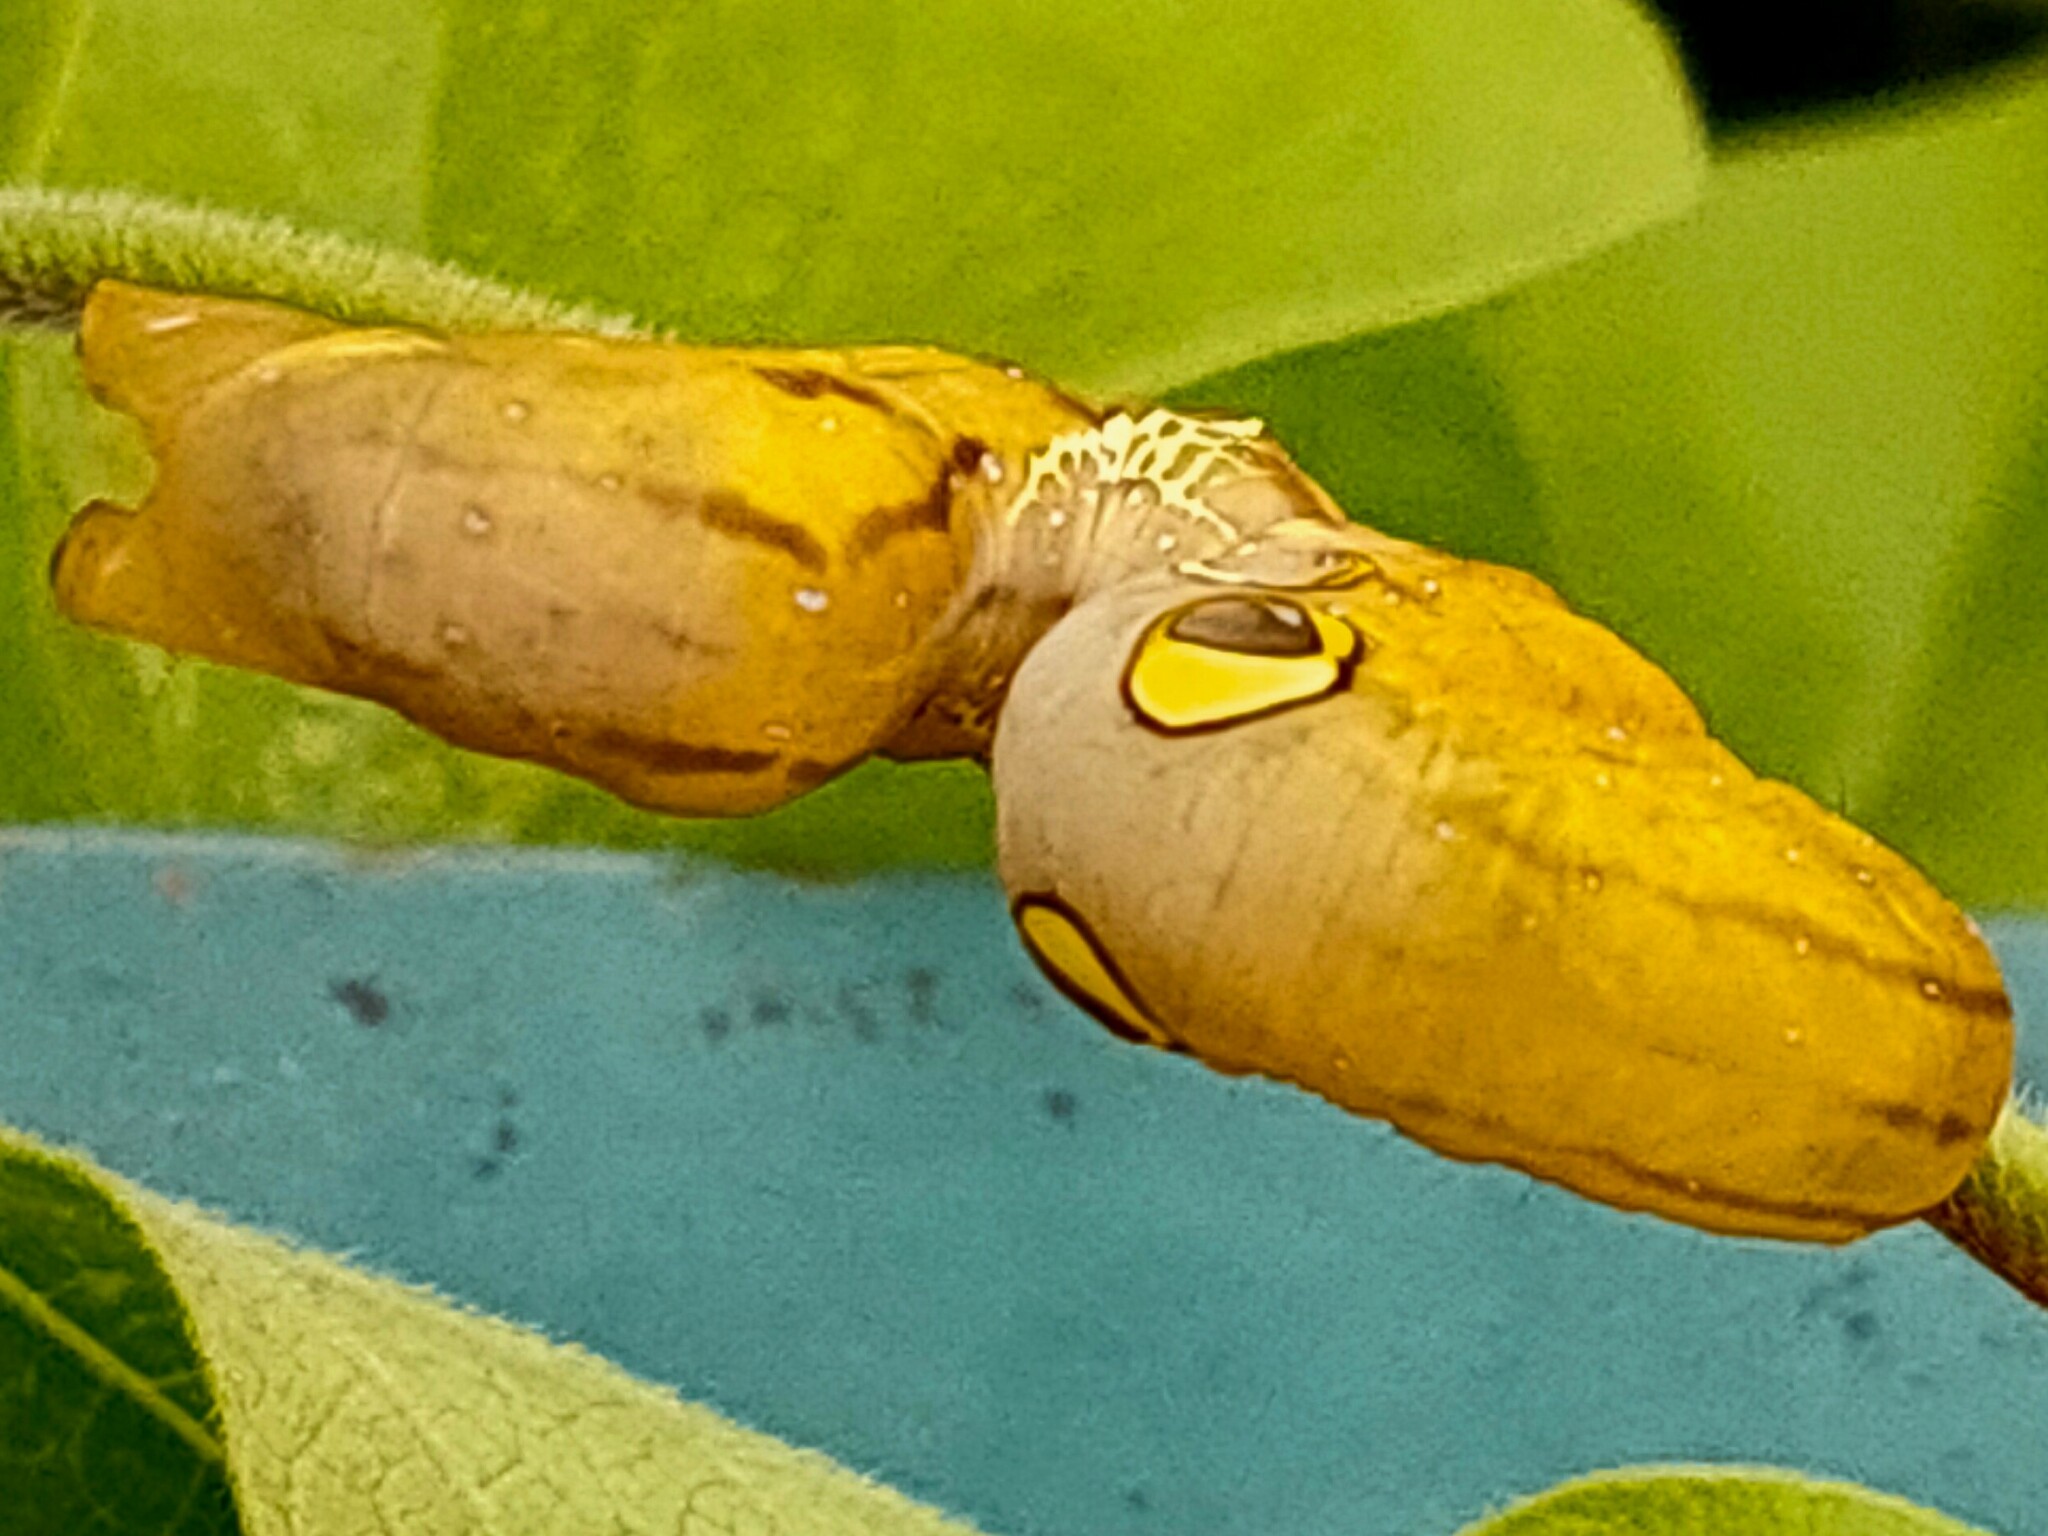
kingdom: Animalia
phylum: Arthropoda
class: Insecta
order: Lepidoptera
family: Erebidae
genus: Eudocima
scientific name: Eudocima tyrannus
